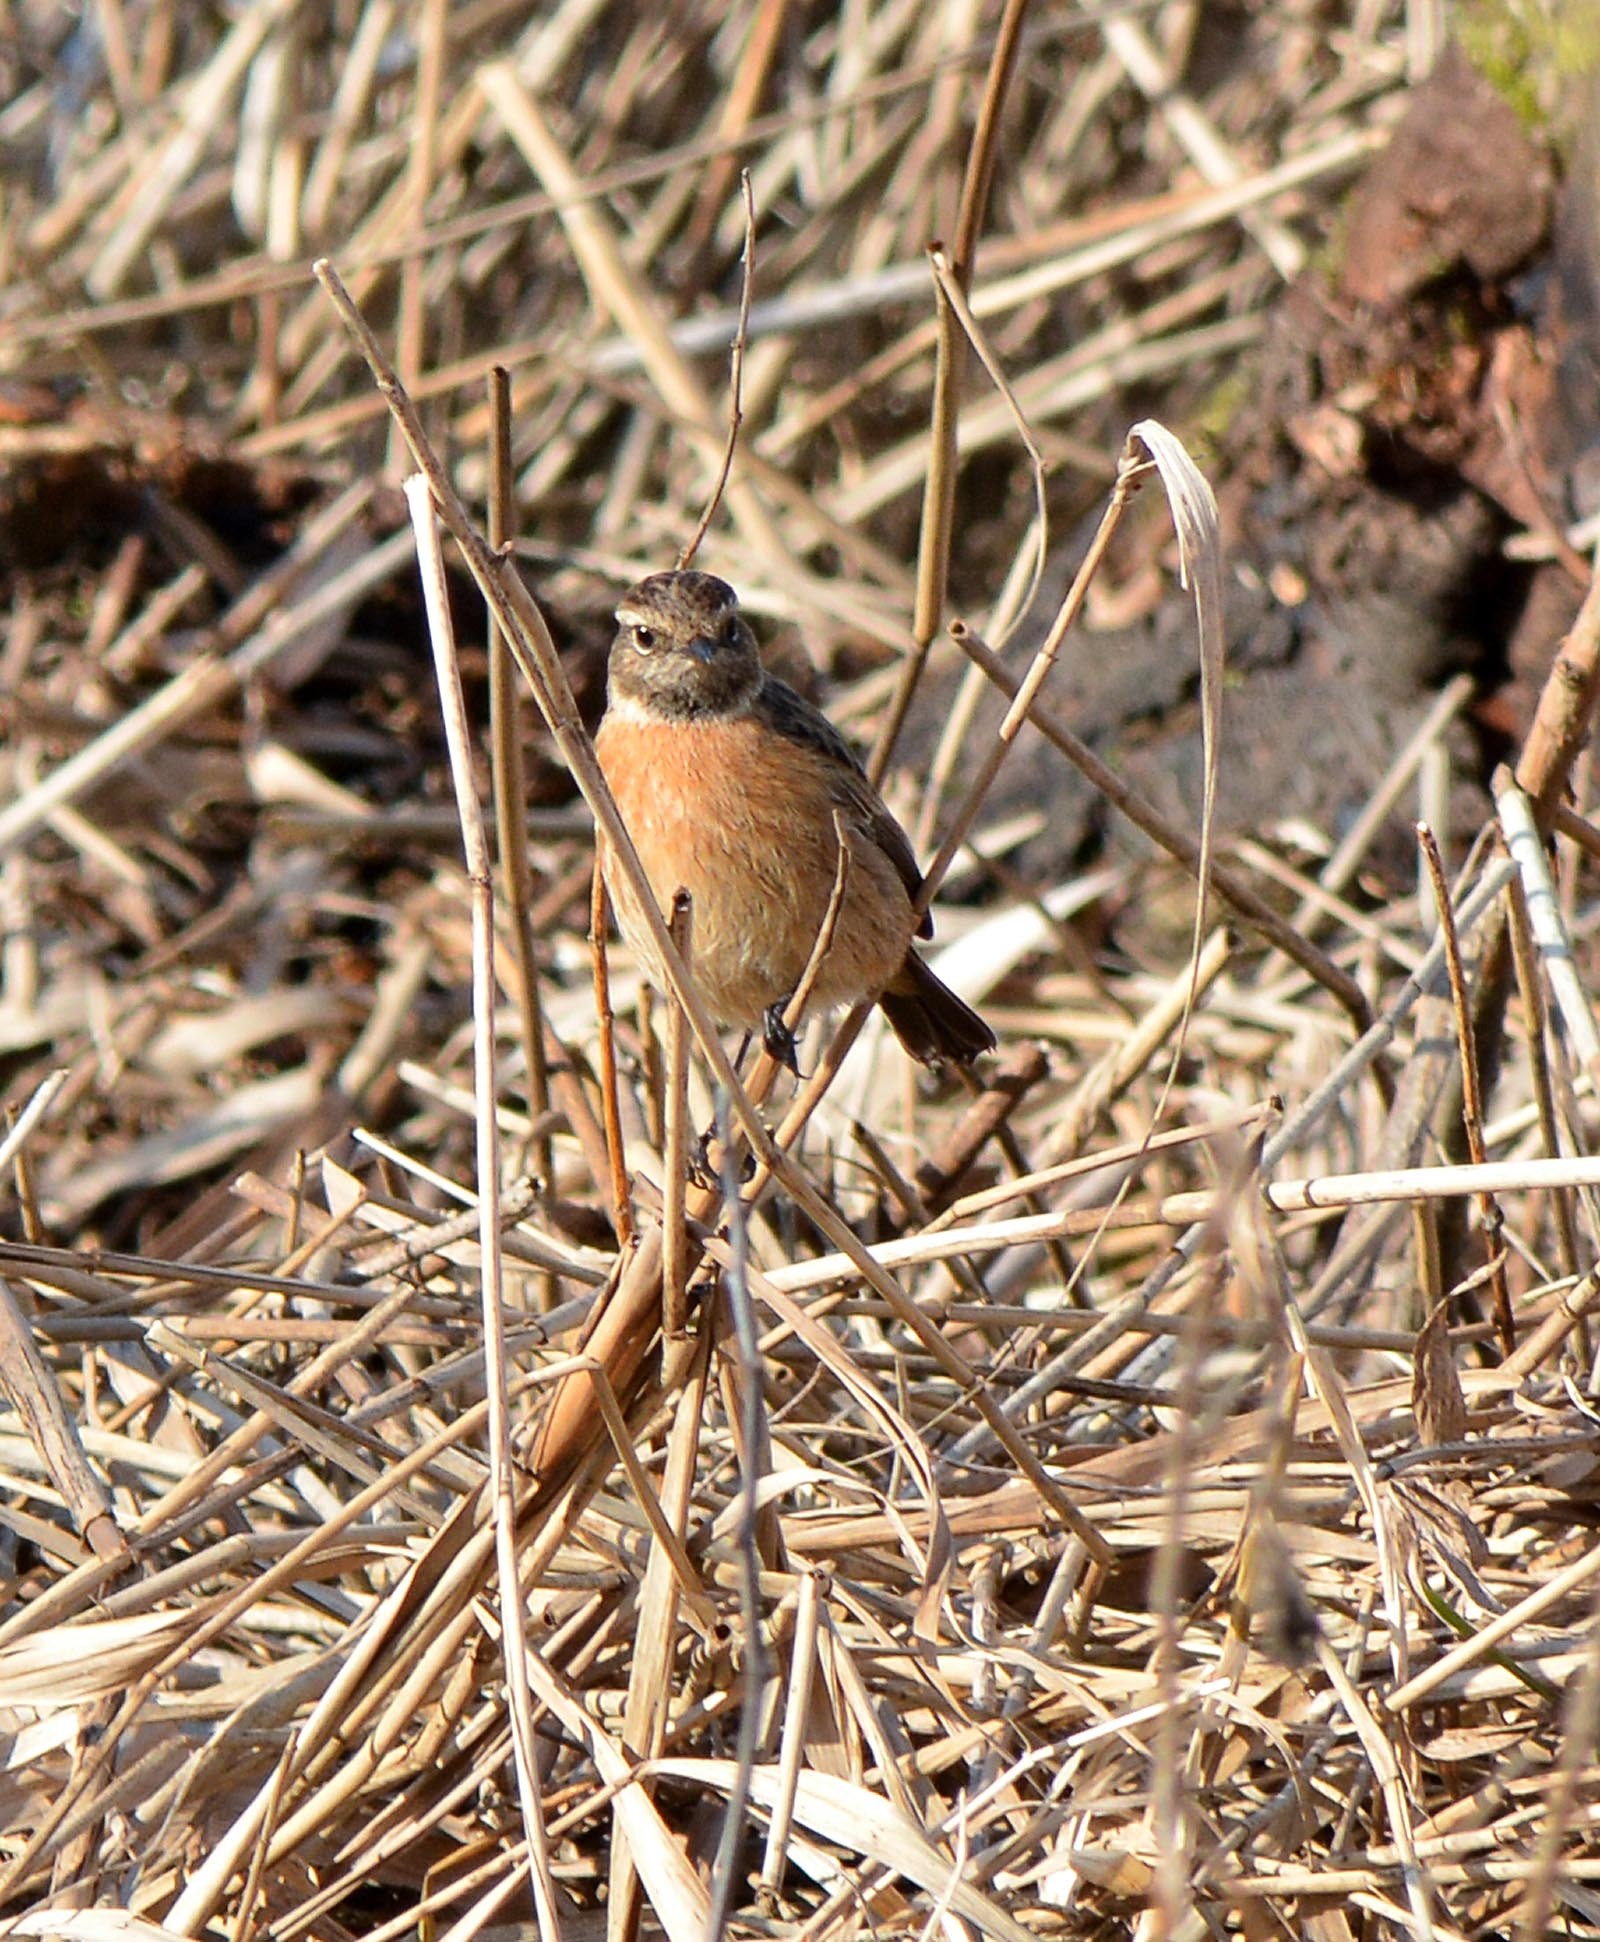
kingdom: Animalia
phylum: Chordata
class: Aves
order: Passeriformes
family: Muscicapidae
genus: Saxicola
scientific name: Saxicola rubicola
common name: European stonechat
